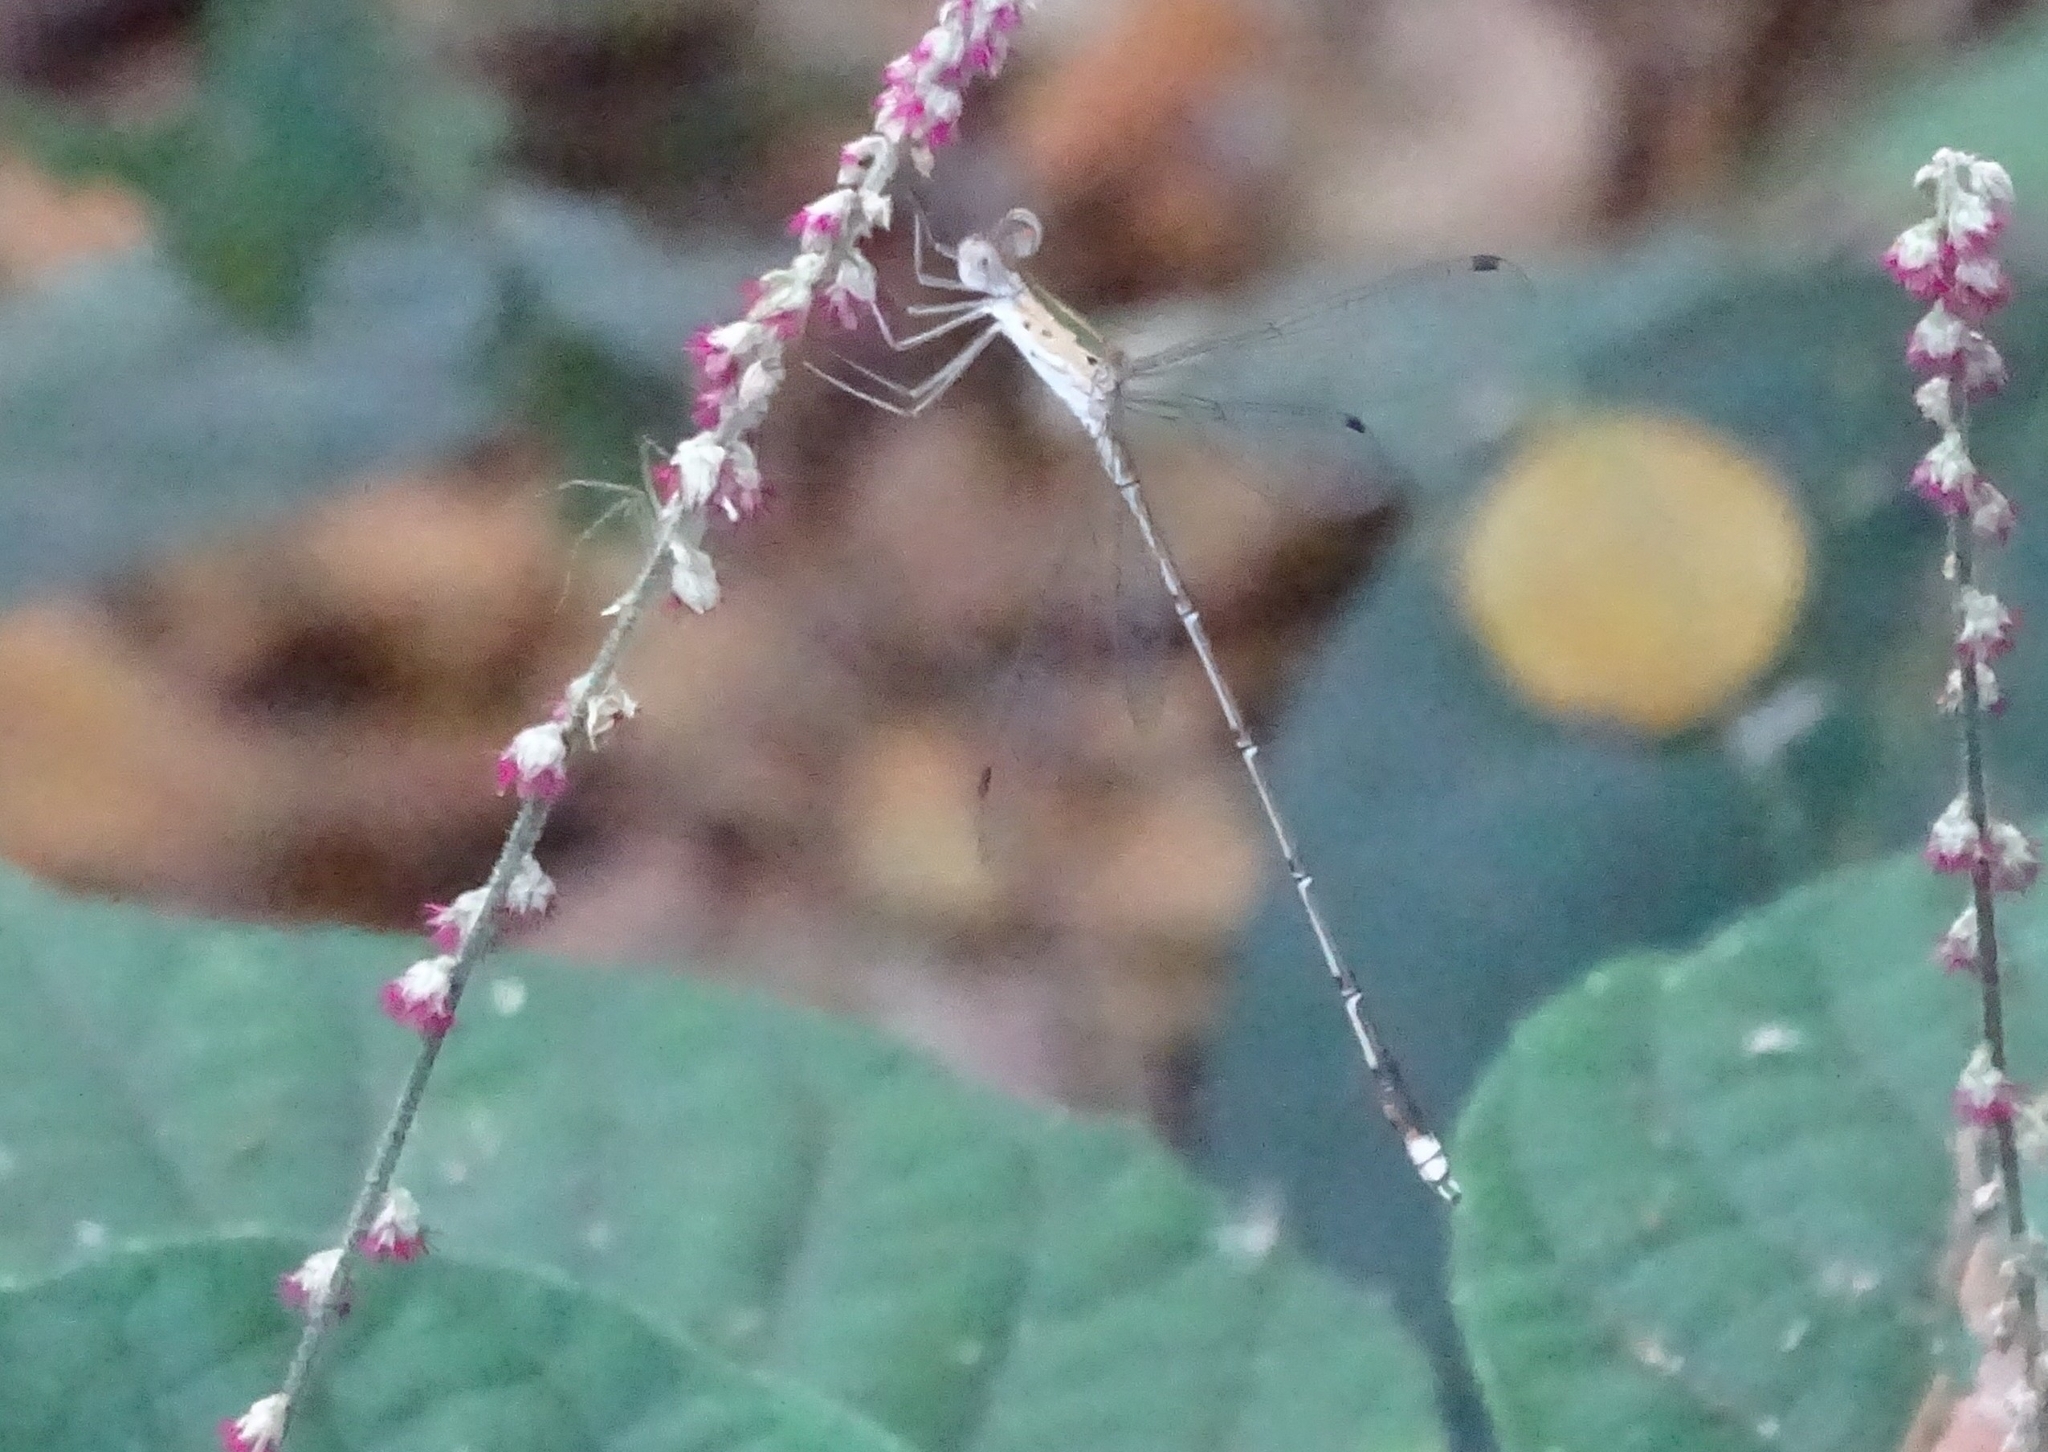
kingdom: Animalia
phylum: Arthropoda
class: Insecta
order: Odonata
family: Lestidae
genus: Lestes
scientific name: Lestes elatus
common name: Emerald spreadwing
